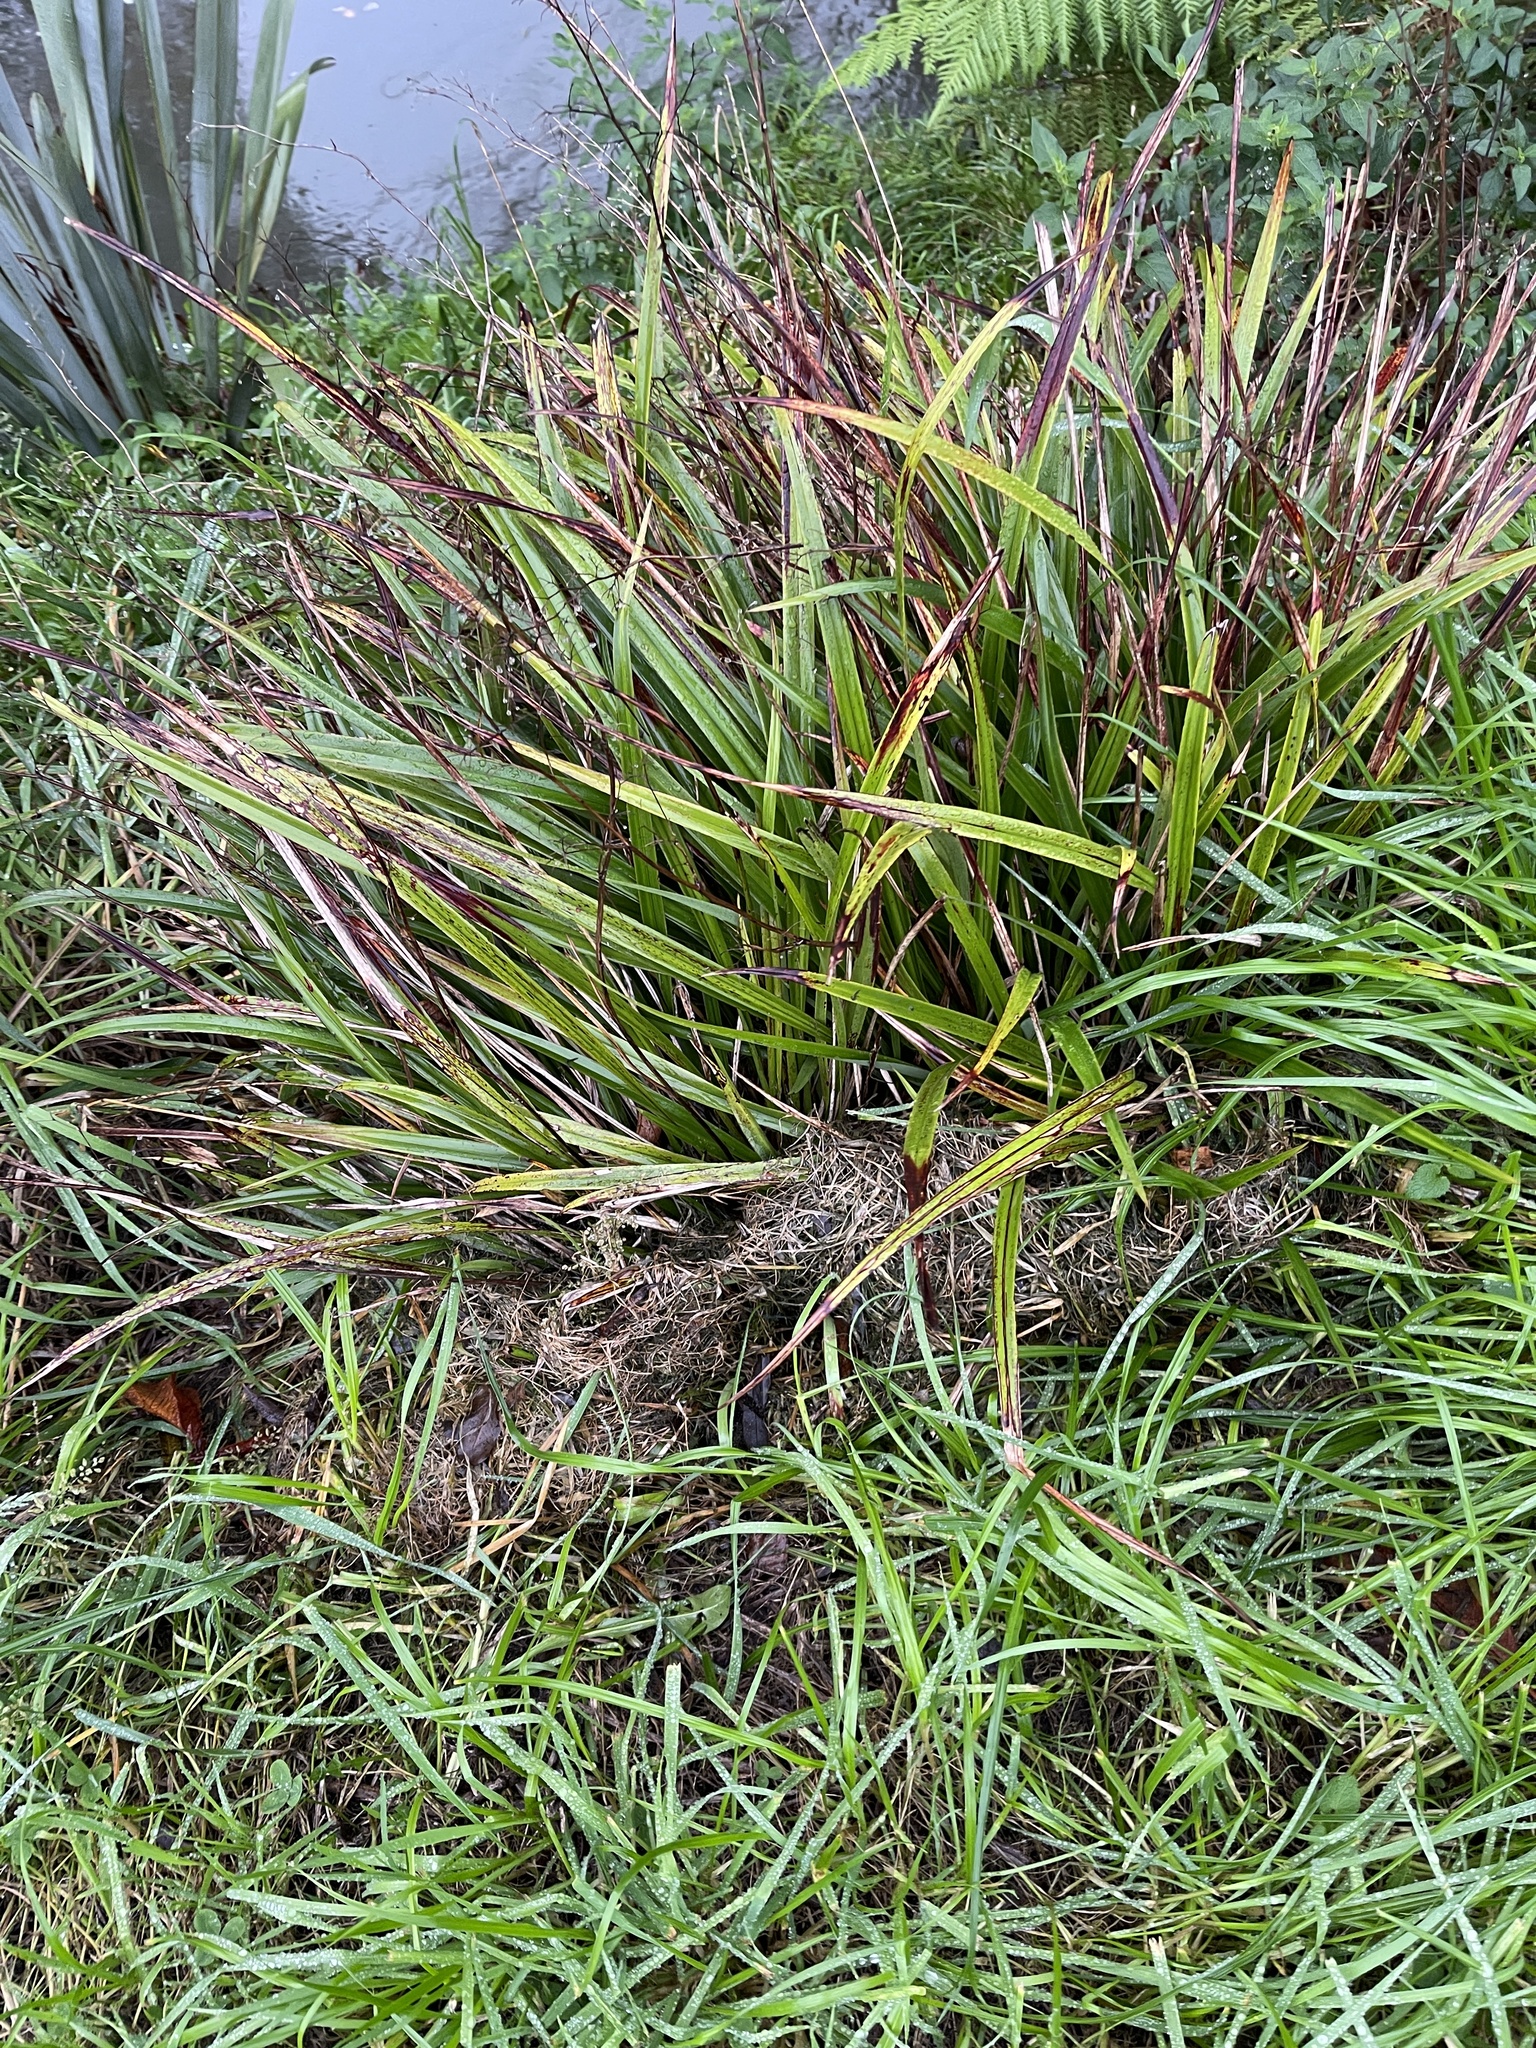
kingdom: Plantae
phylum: Tracheophyta
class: Liliopsida
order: Asparagales
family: Asphodelaceae
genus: Dianella
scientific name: Dianella nigra
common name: New zealand-blueberry
